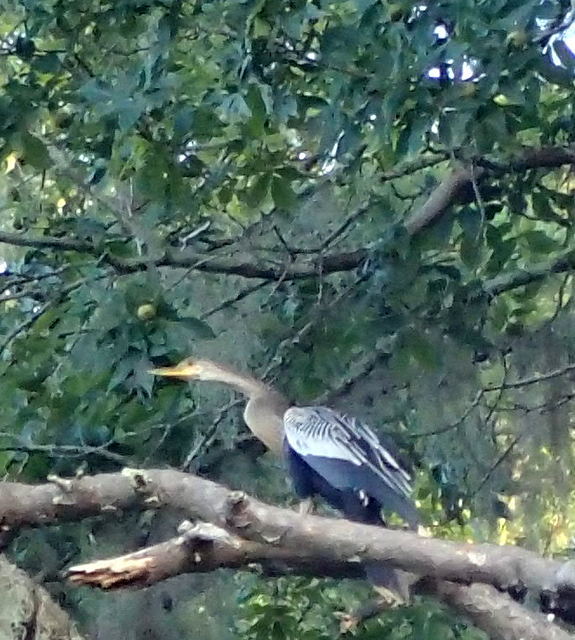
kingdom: Animalia
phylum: Chordata
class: Aves
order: Suliformes
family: Anhingidae
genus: Anhinga
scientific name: Anhinga anhinga
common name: Anhinga
